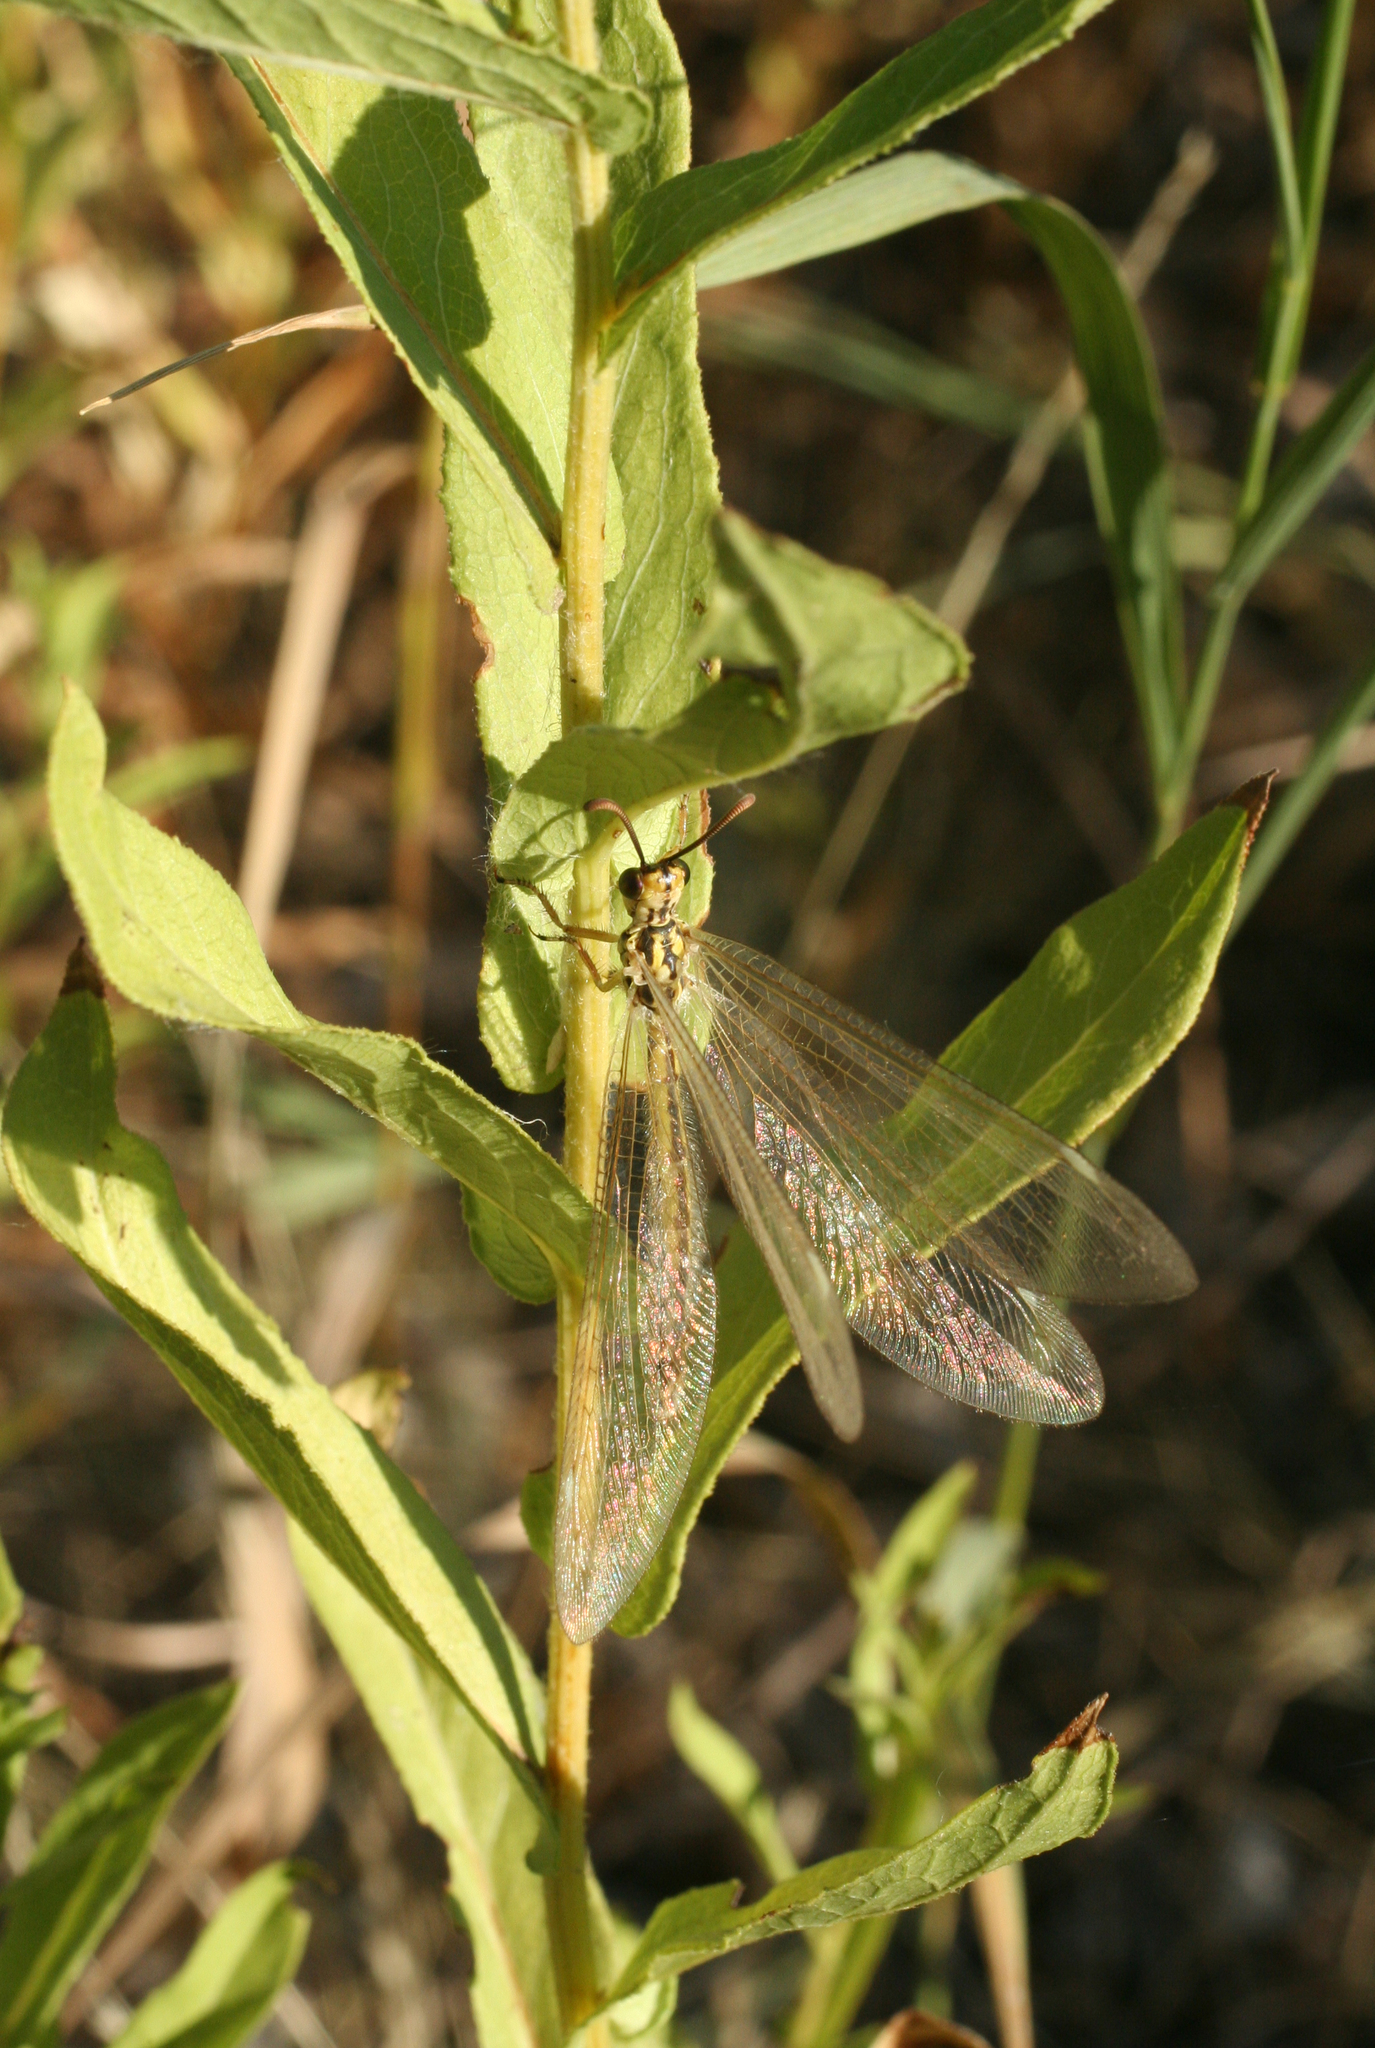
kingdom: Animalia
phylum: Arthropoda
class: Insecta
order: Neuroptera
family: Myrmeleontidae
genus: Myrmecaelurus
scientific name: Myrmecaelurus trigrammus
